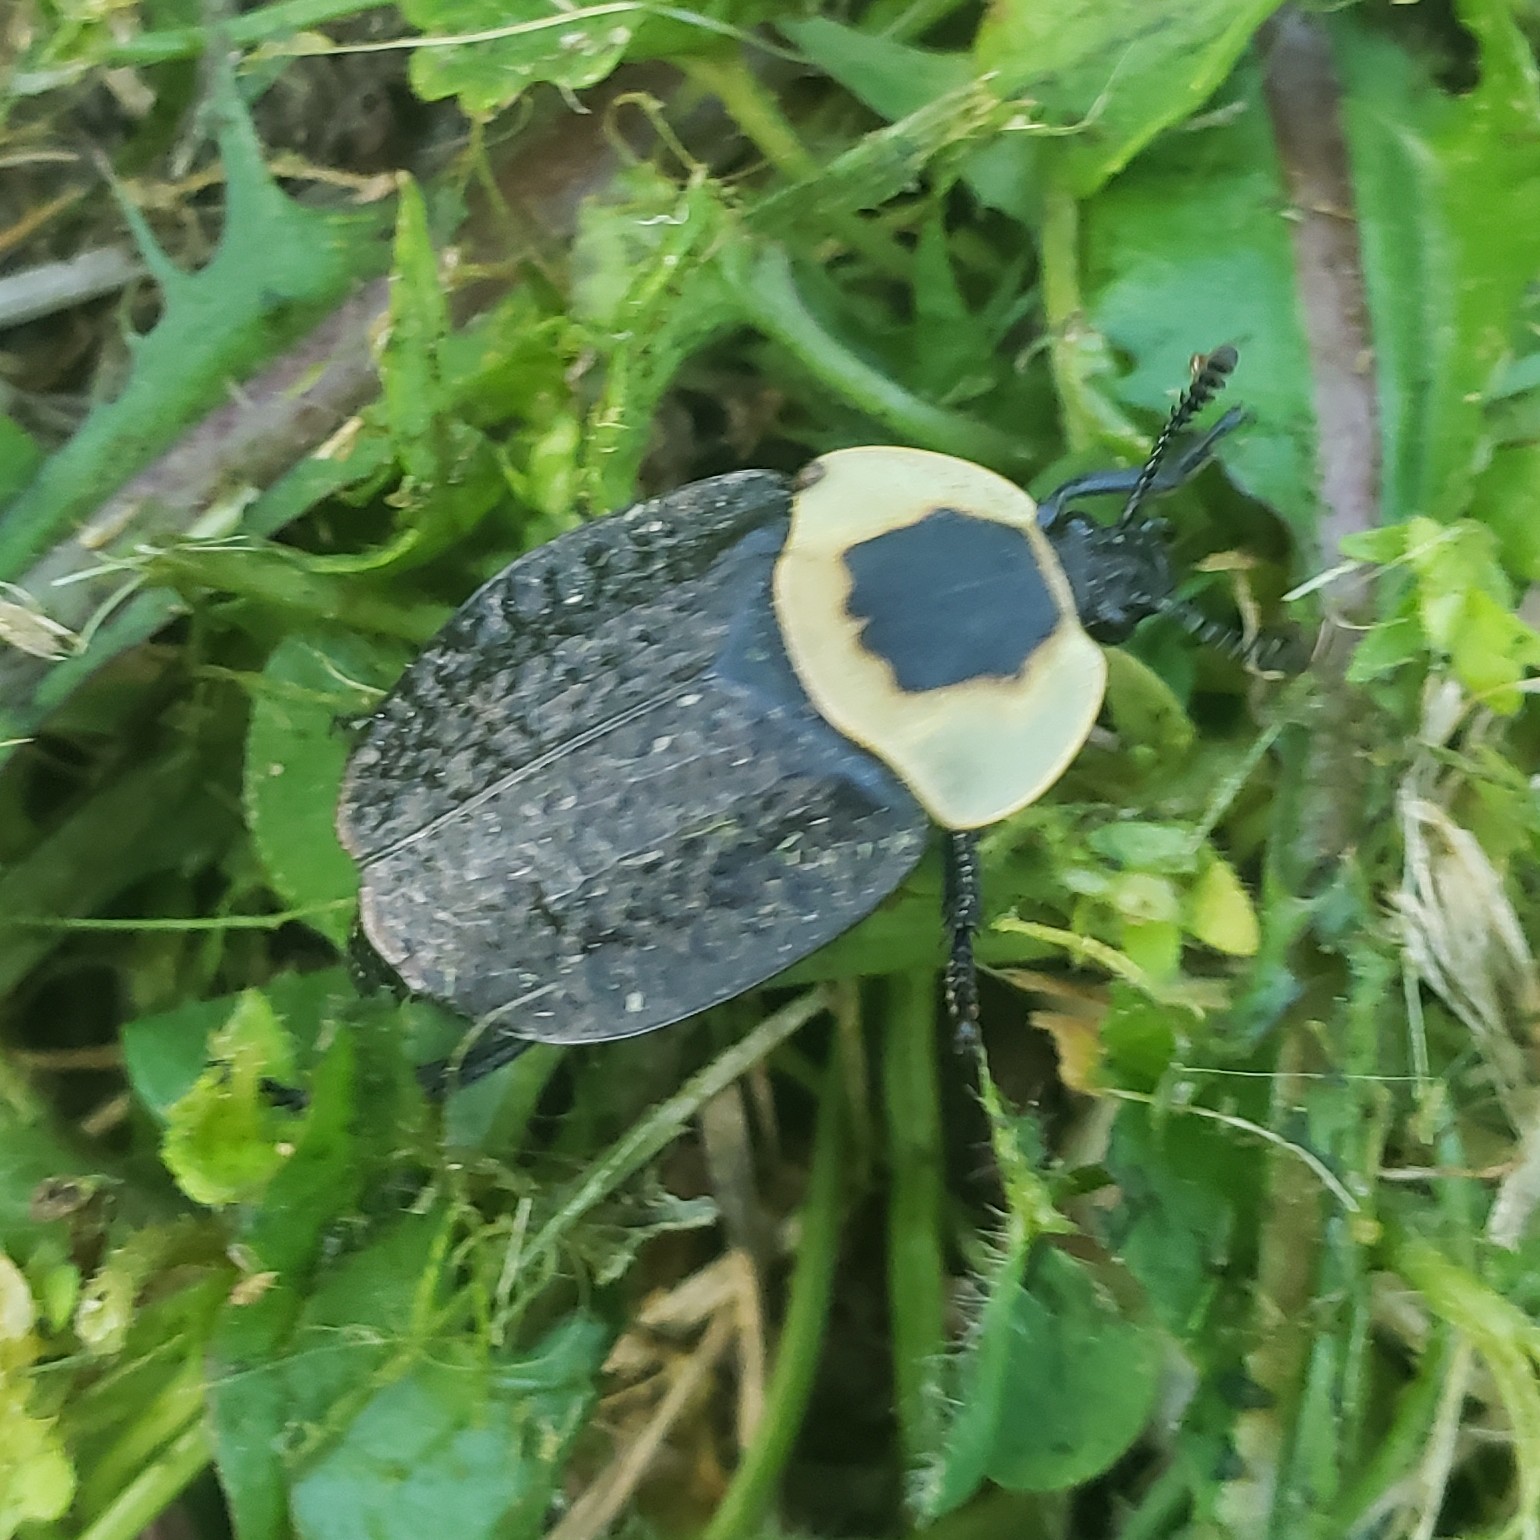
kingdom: Animalia
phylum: Arthropoda
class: Insecta
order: Coleoptera
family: Staphylinidae
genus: Necrophila
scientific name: Necrophila americana
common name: American carrion beetle
